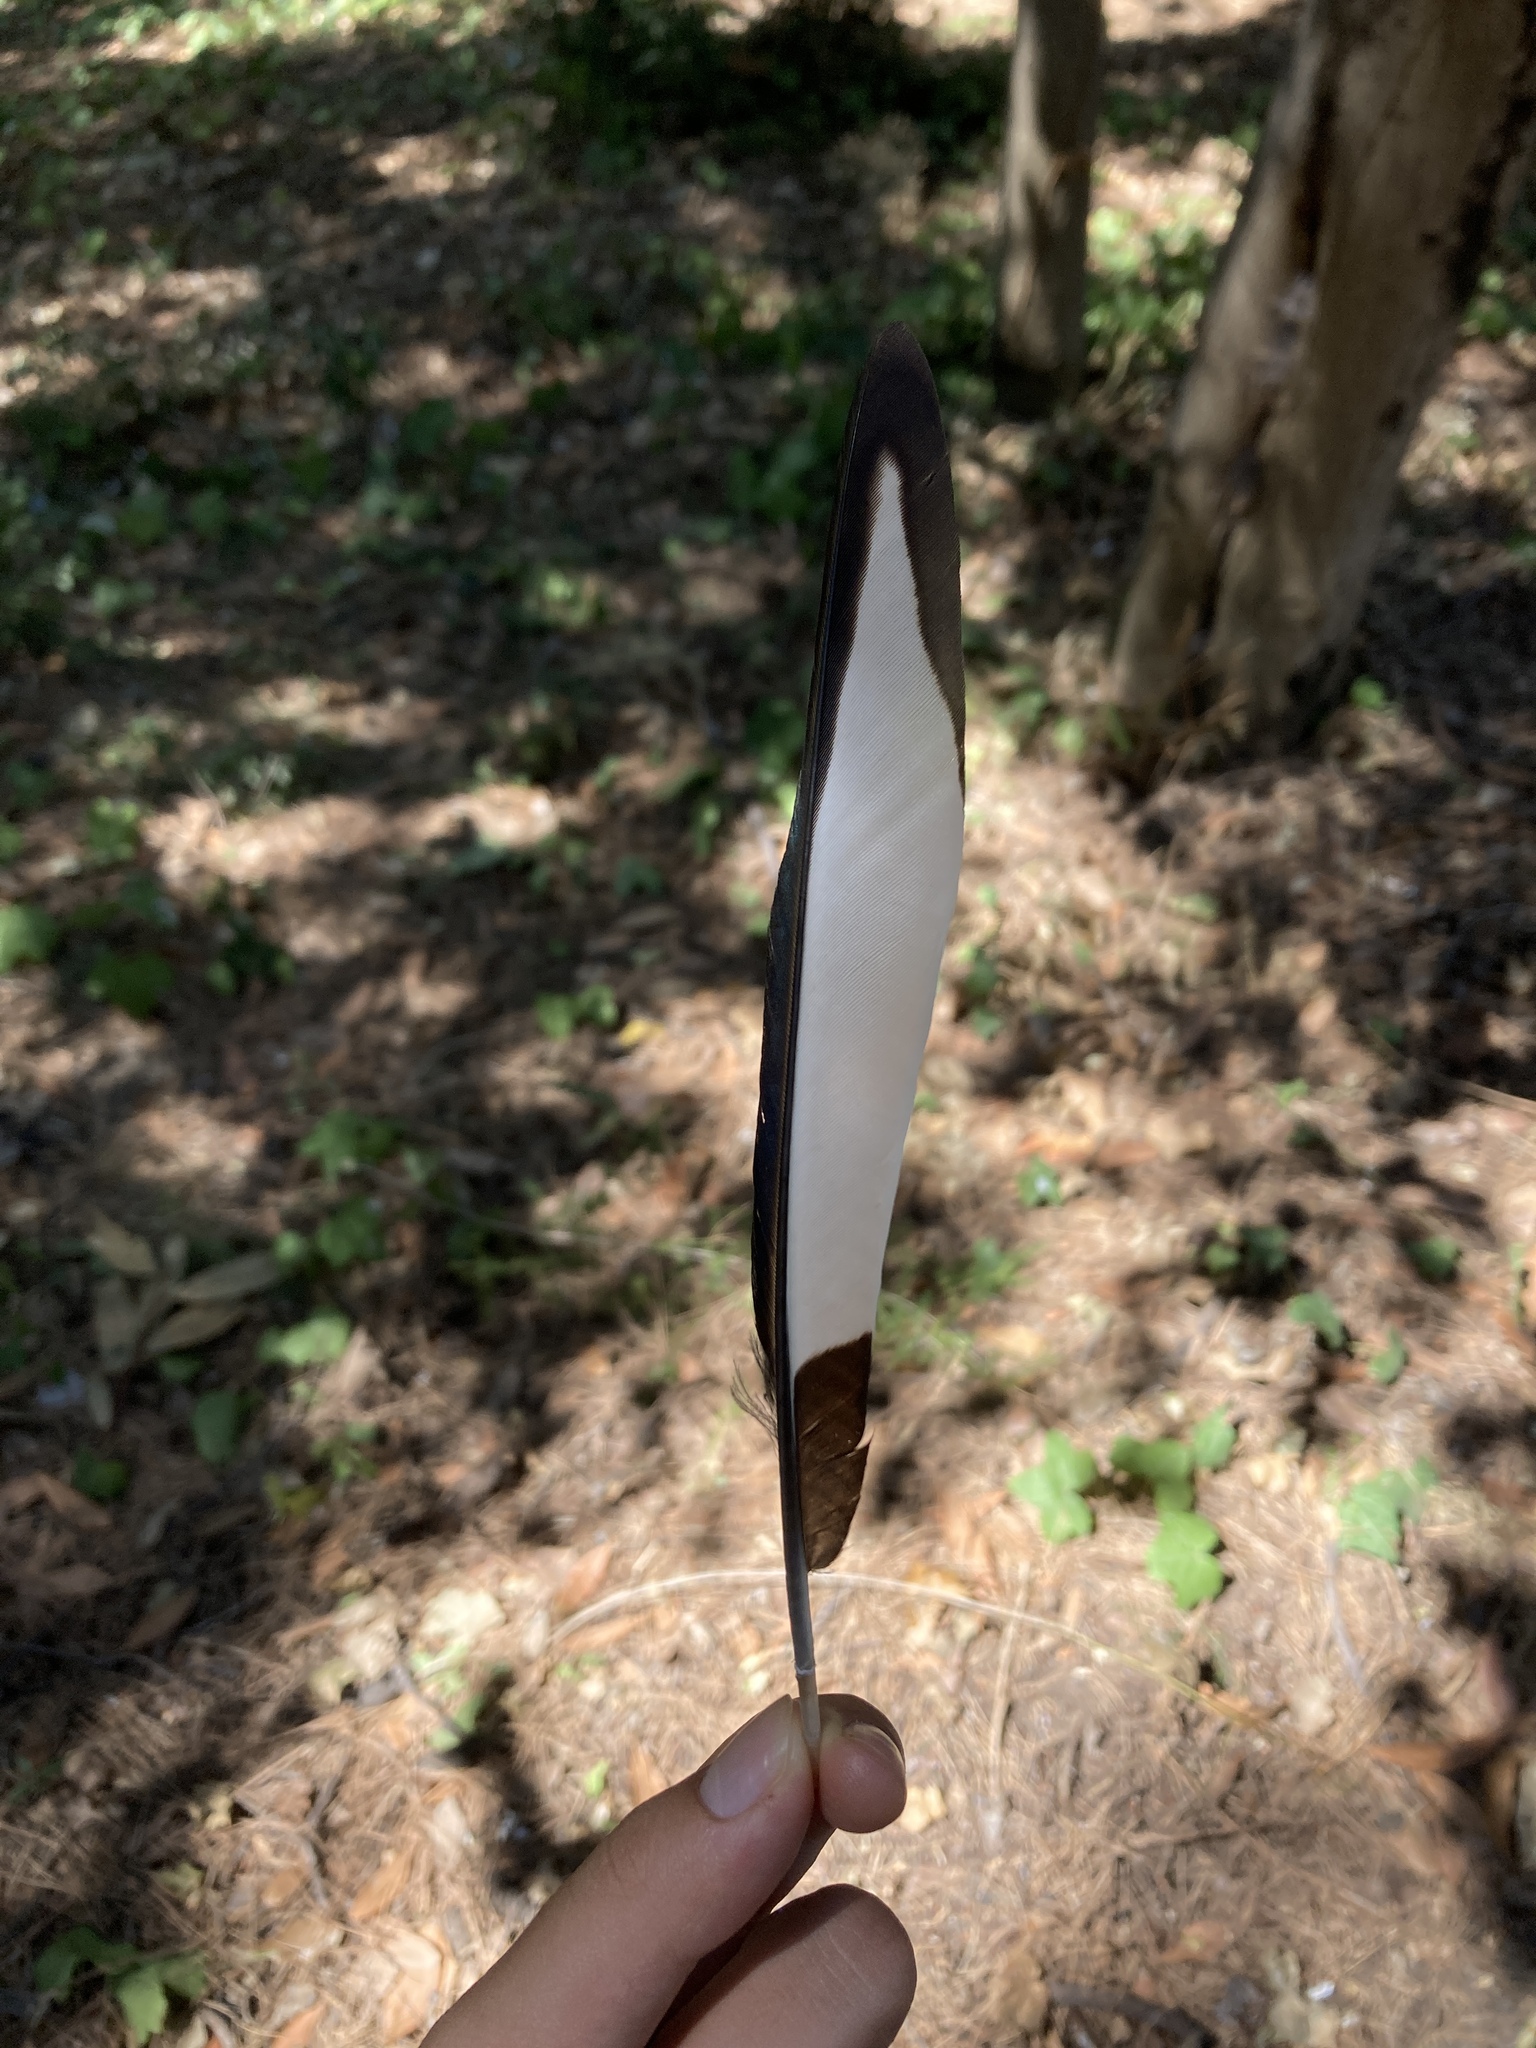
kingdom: Animalia
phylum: Chordata
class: Aves
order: Passeriformes
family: Corvidae
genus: Pica
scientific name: Pica pica
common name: Eurasian magpie
